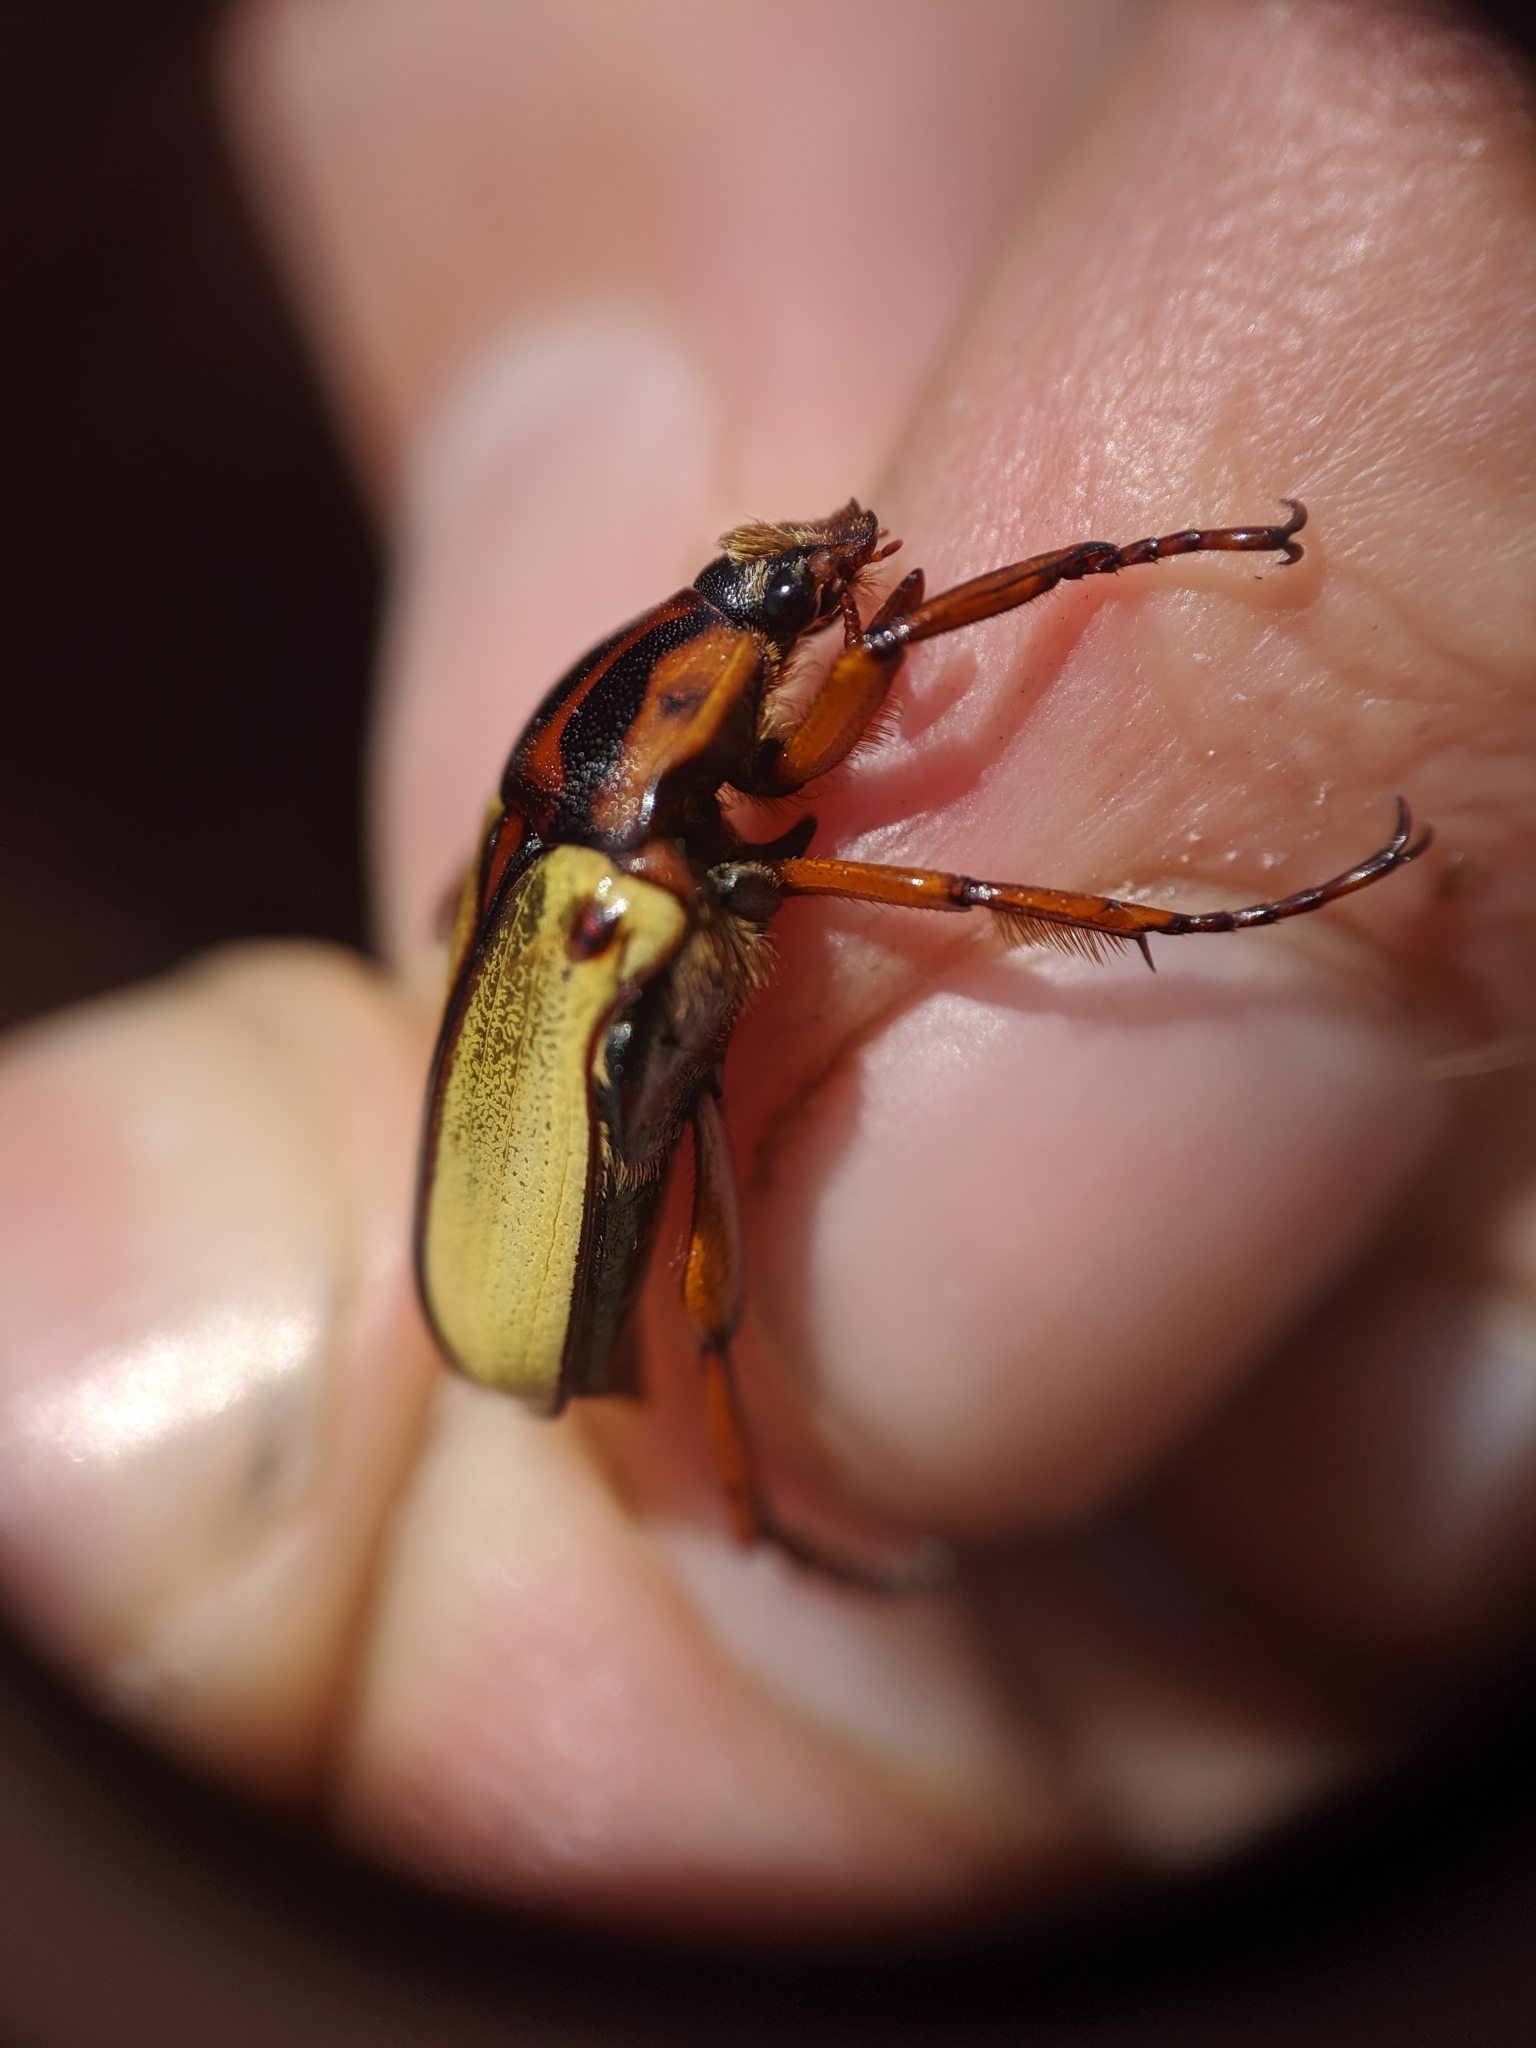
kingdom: Animalia
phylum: Arthropoda
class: Insecta
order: Coleoptera
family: Scarabaeidae
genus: Anisorrhina
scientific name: Anisorrhina algoensis
